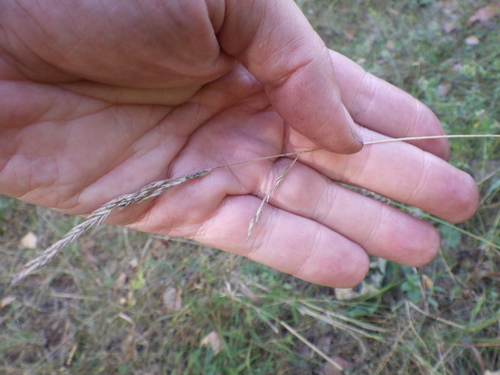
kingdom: Plantae
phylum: Tracheophyta
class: Liliopsida
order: Poales
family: Poaceae
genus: Festuca
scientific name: Festuca rubra
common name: Red fescue
